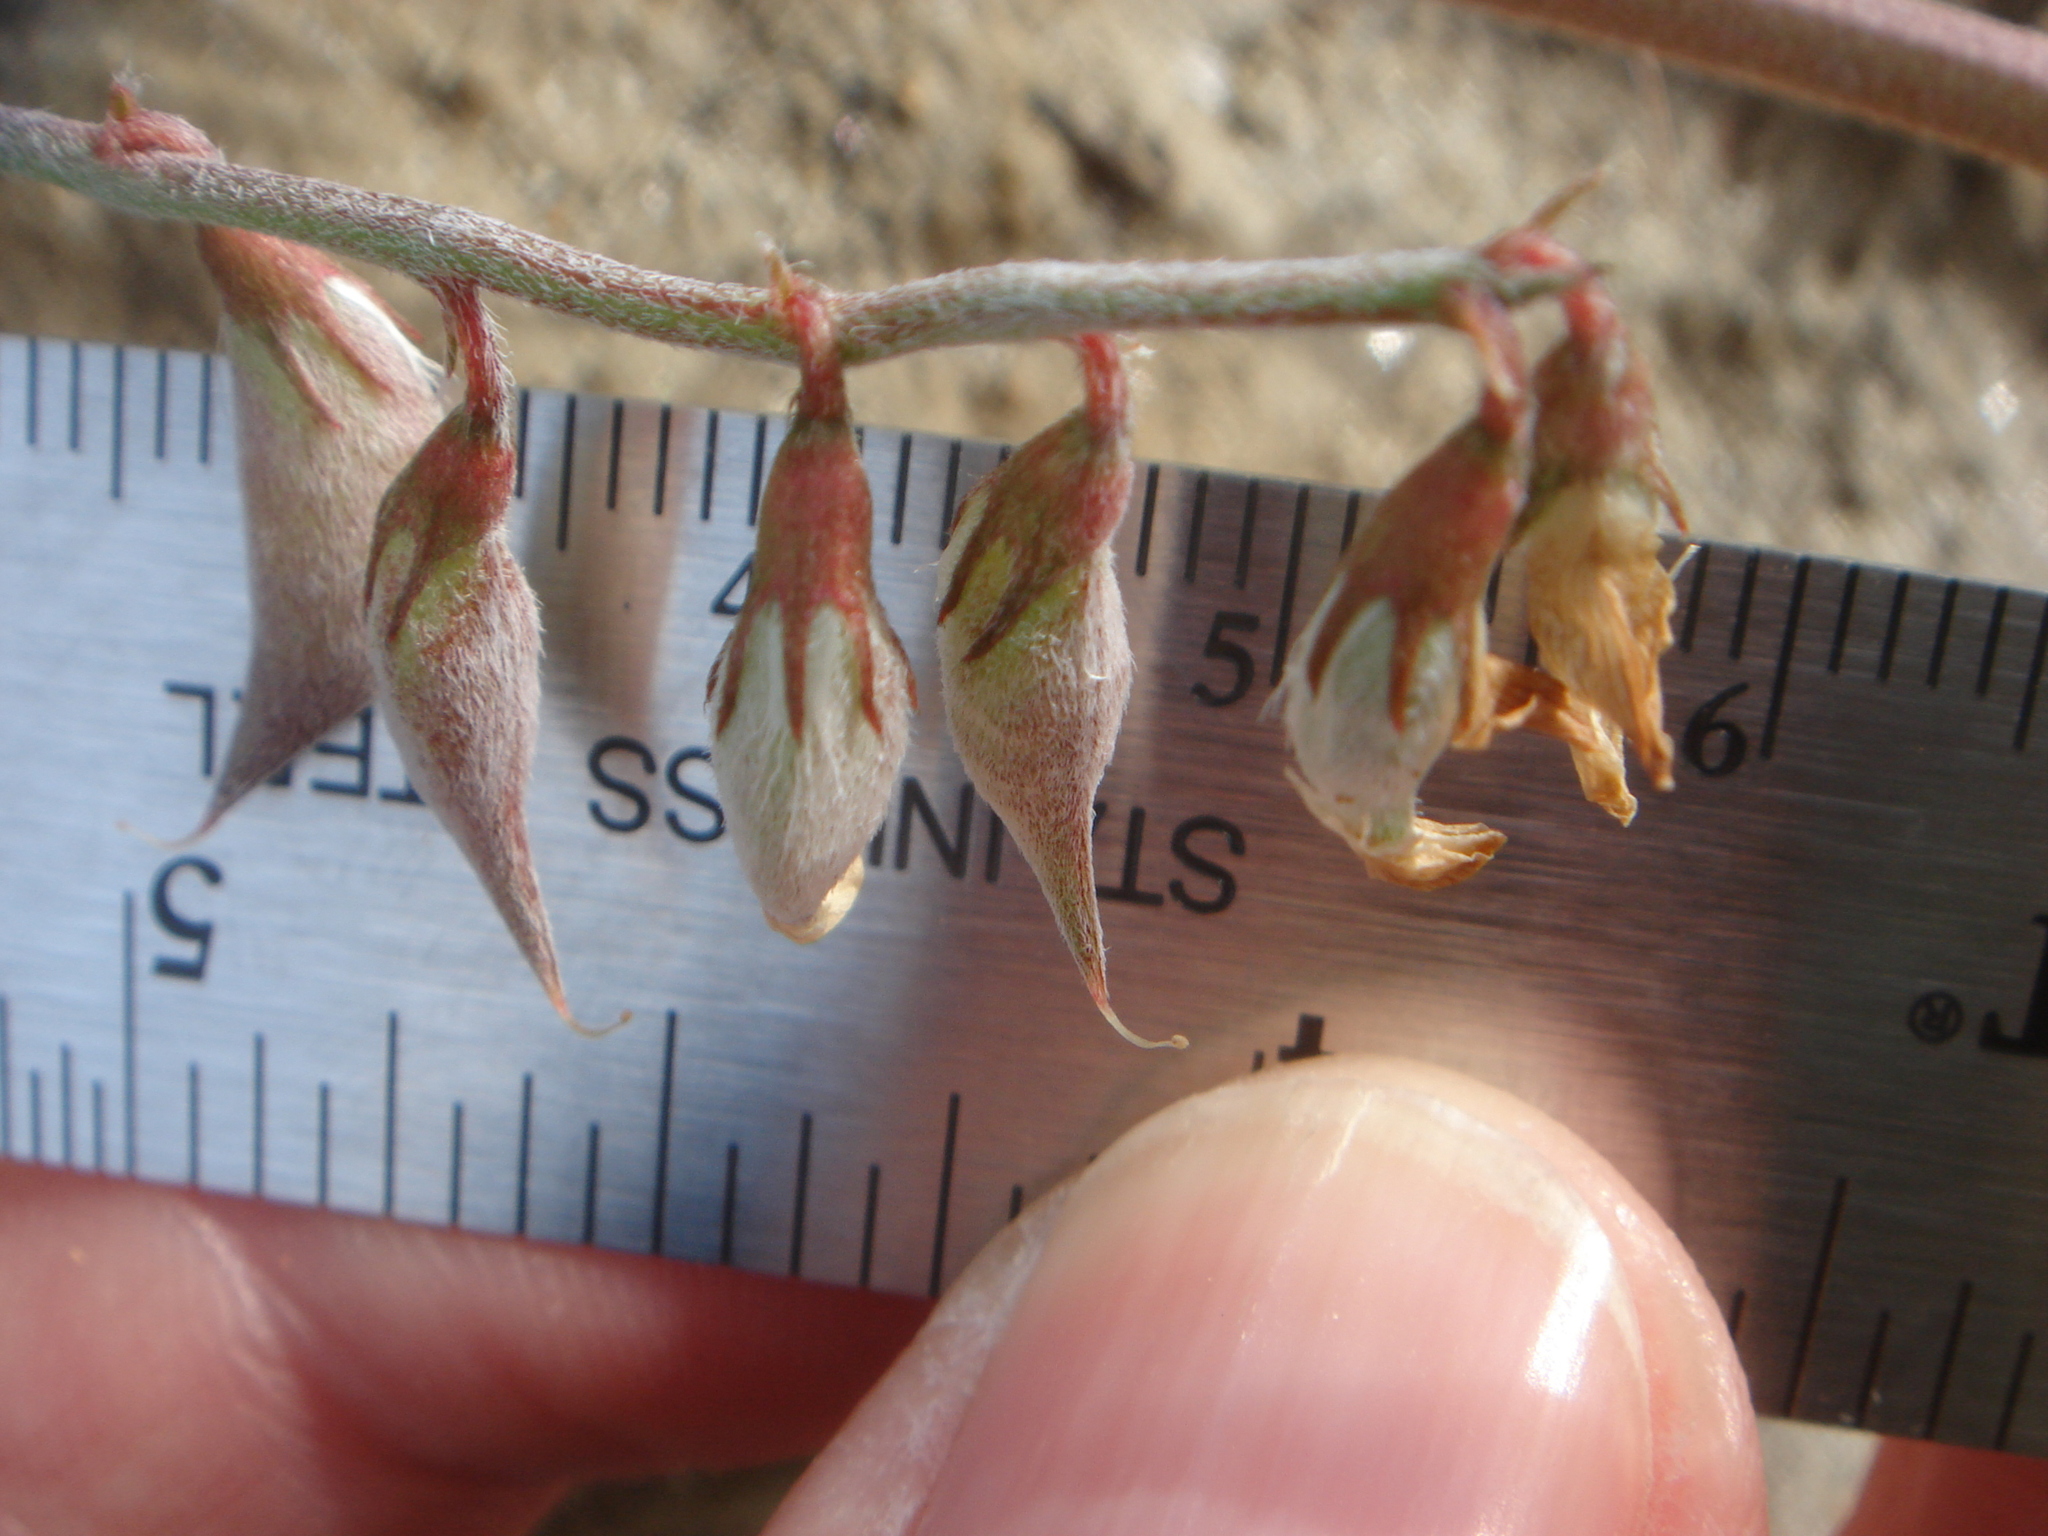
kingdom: Plantae
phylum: Tracheophyta
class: Magnoliopsida
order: Fabales
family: Fabaceae
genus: Astragalus
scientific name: Astragalus insularis
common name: Cedros milk-vetch
